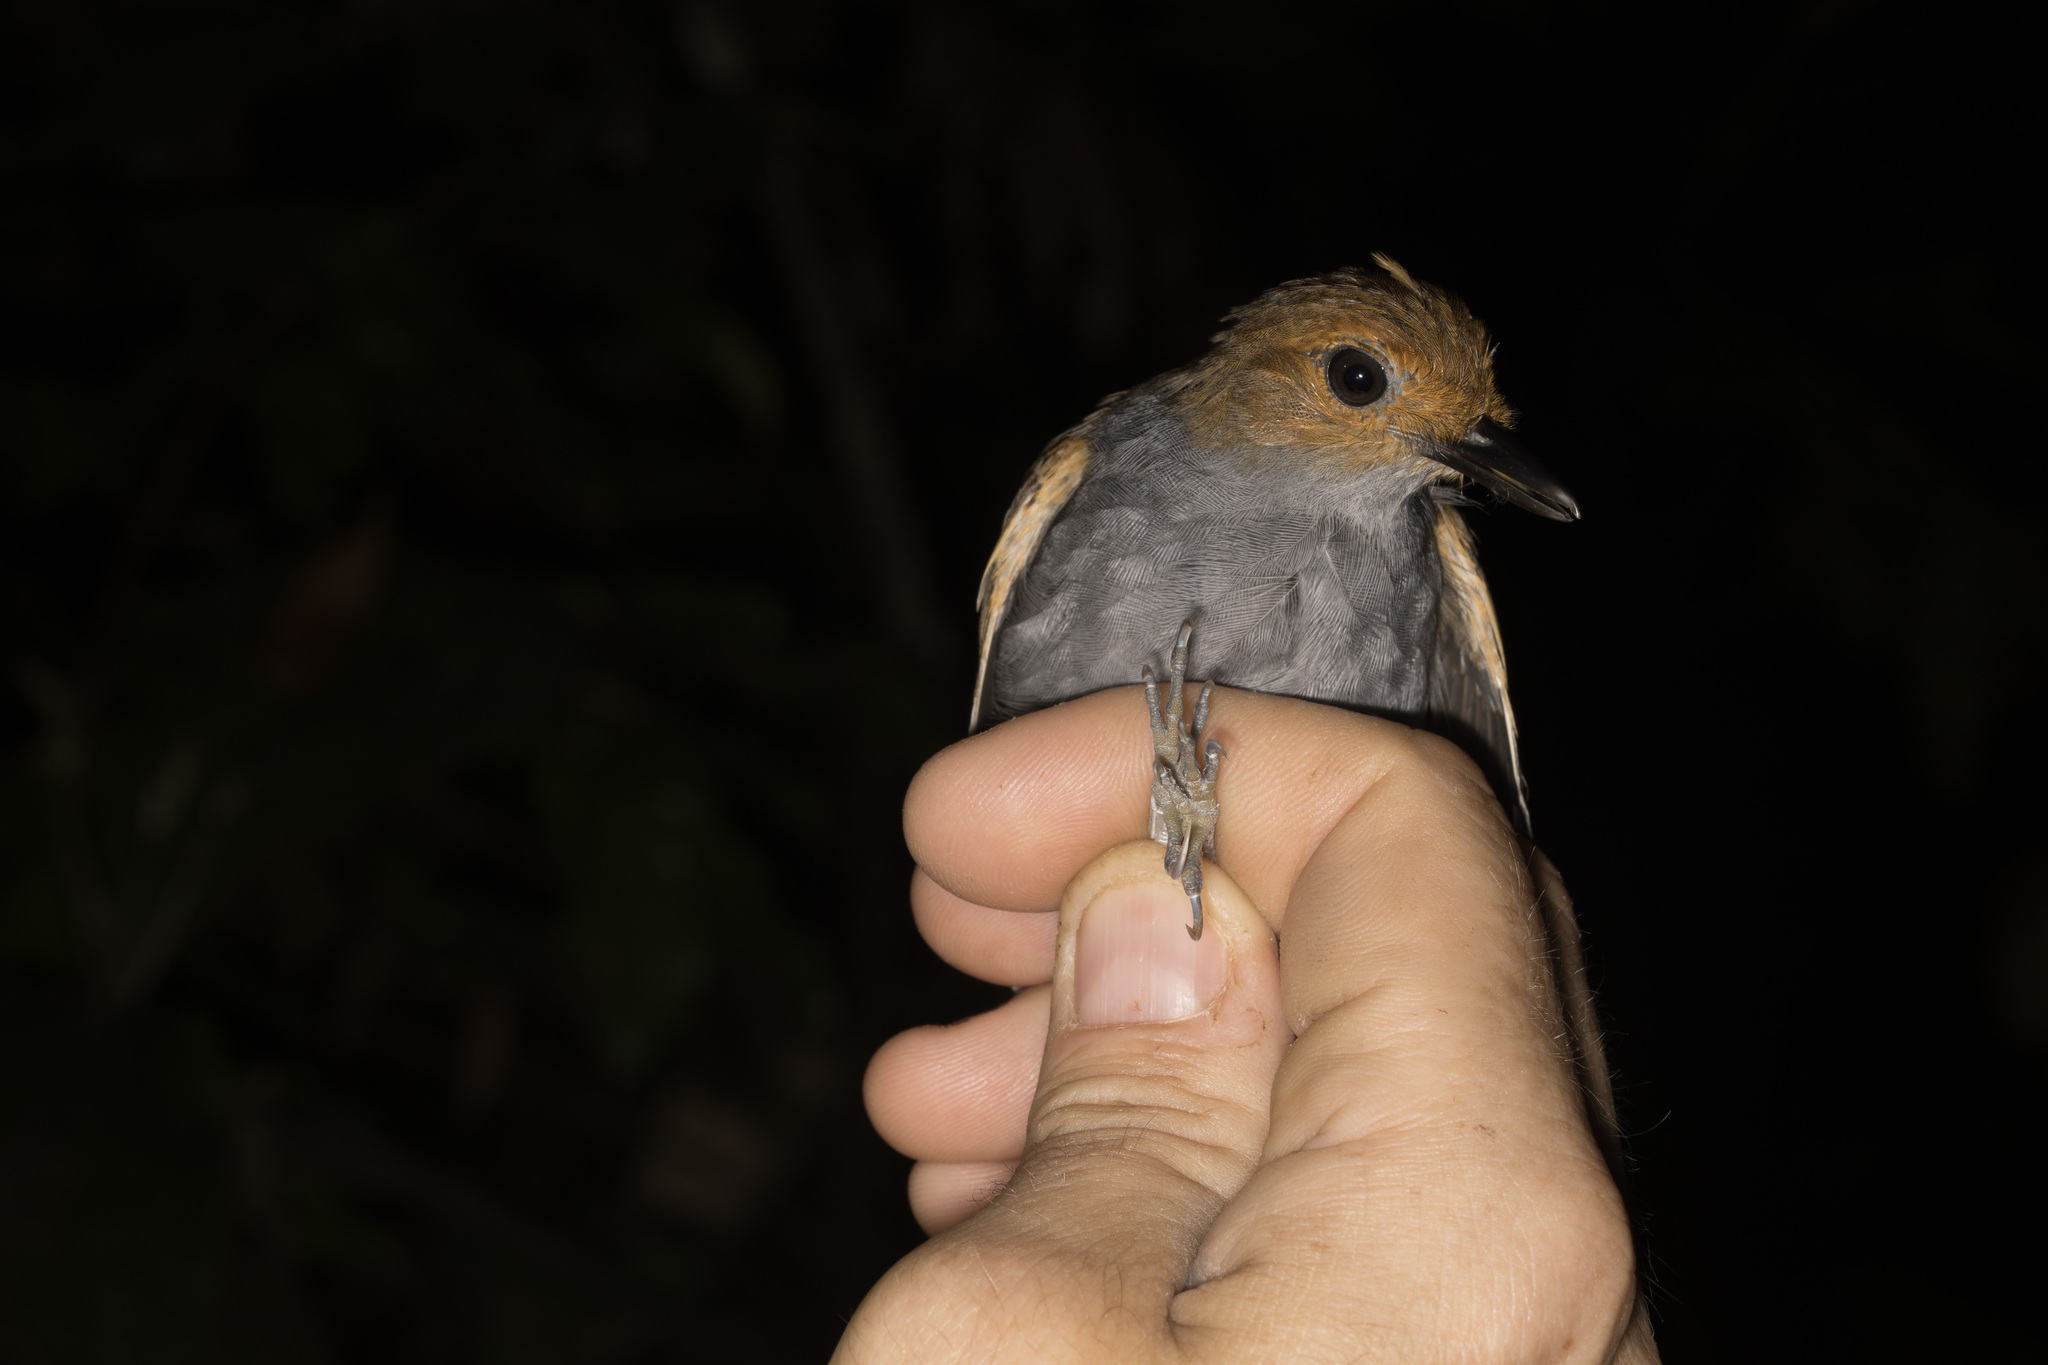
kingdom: Animalia
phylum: Chordata
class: Aves
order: Passeriformes
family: Thamnophilidae
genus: Willisornis
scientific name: Willisornis poecilinotus
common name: Common scale-backed antbird
